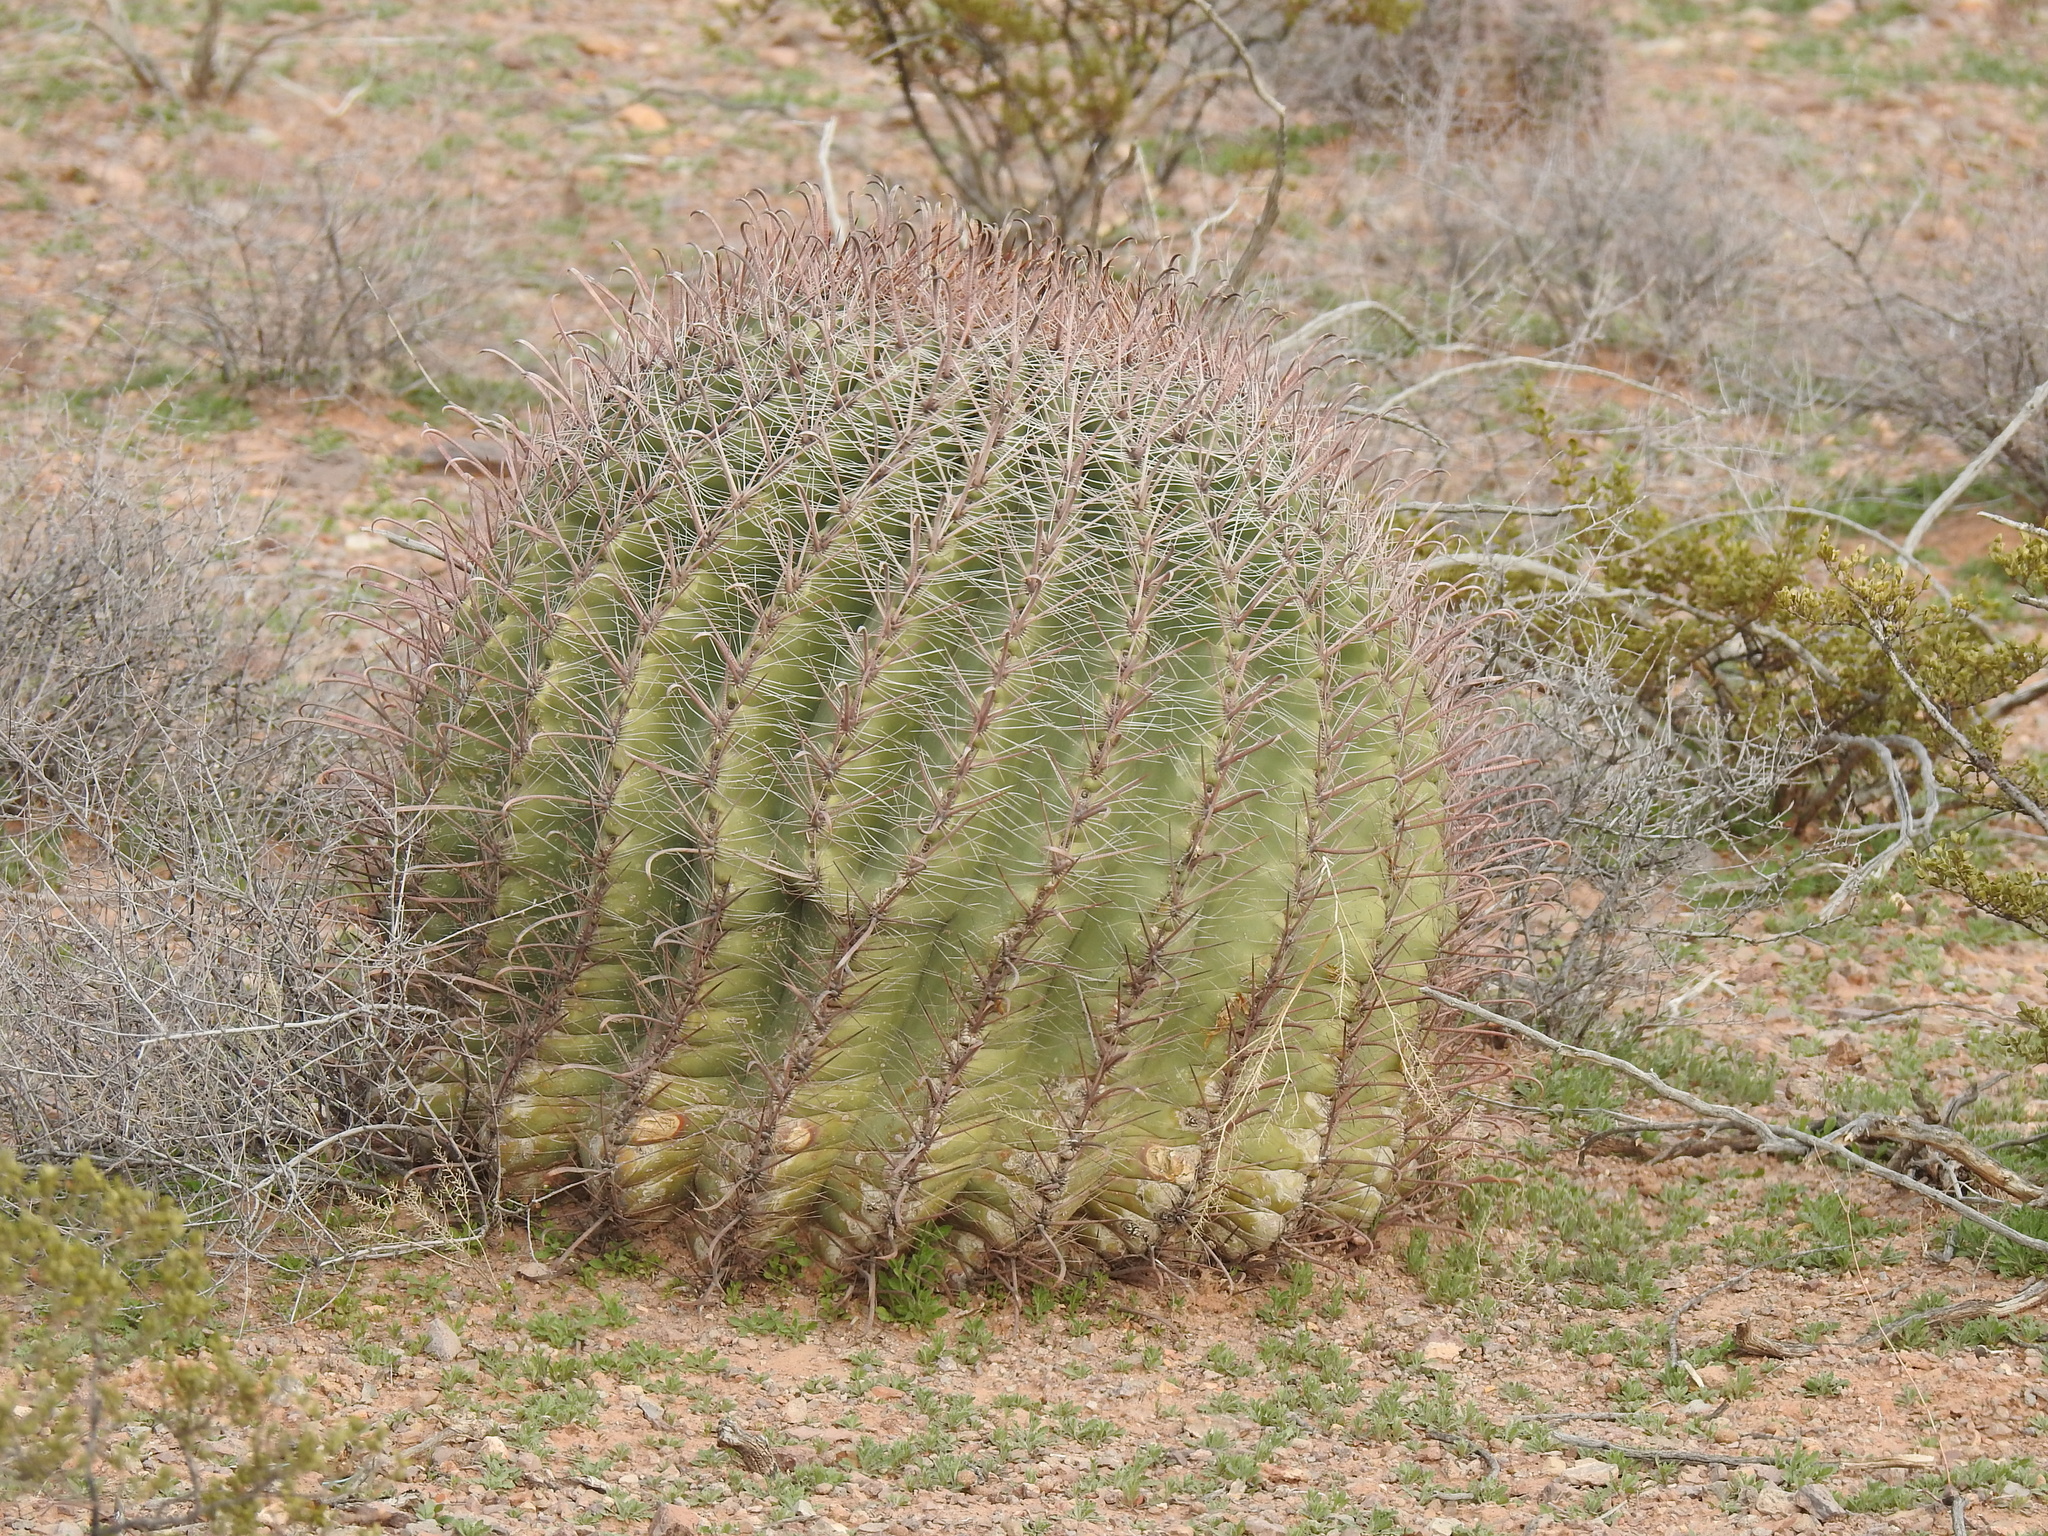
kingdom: Plantae
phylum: Tracheophyta
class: Magnoliopsida
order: Caryophyllales
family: Cactaceae
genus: Ferocactus
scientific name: Ferocactus wislizeni
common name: Candy barrel cactus
